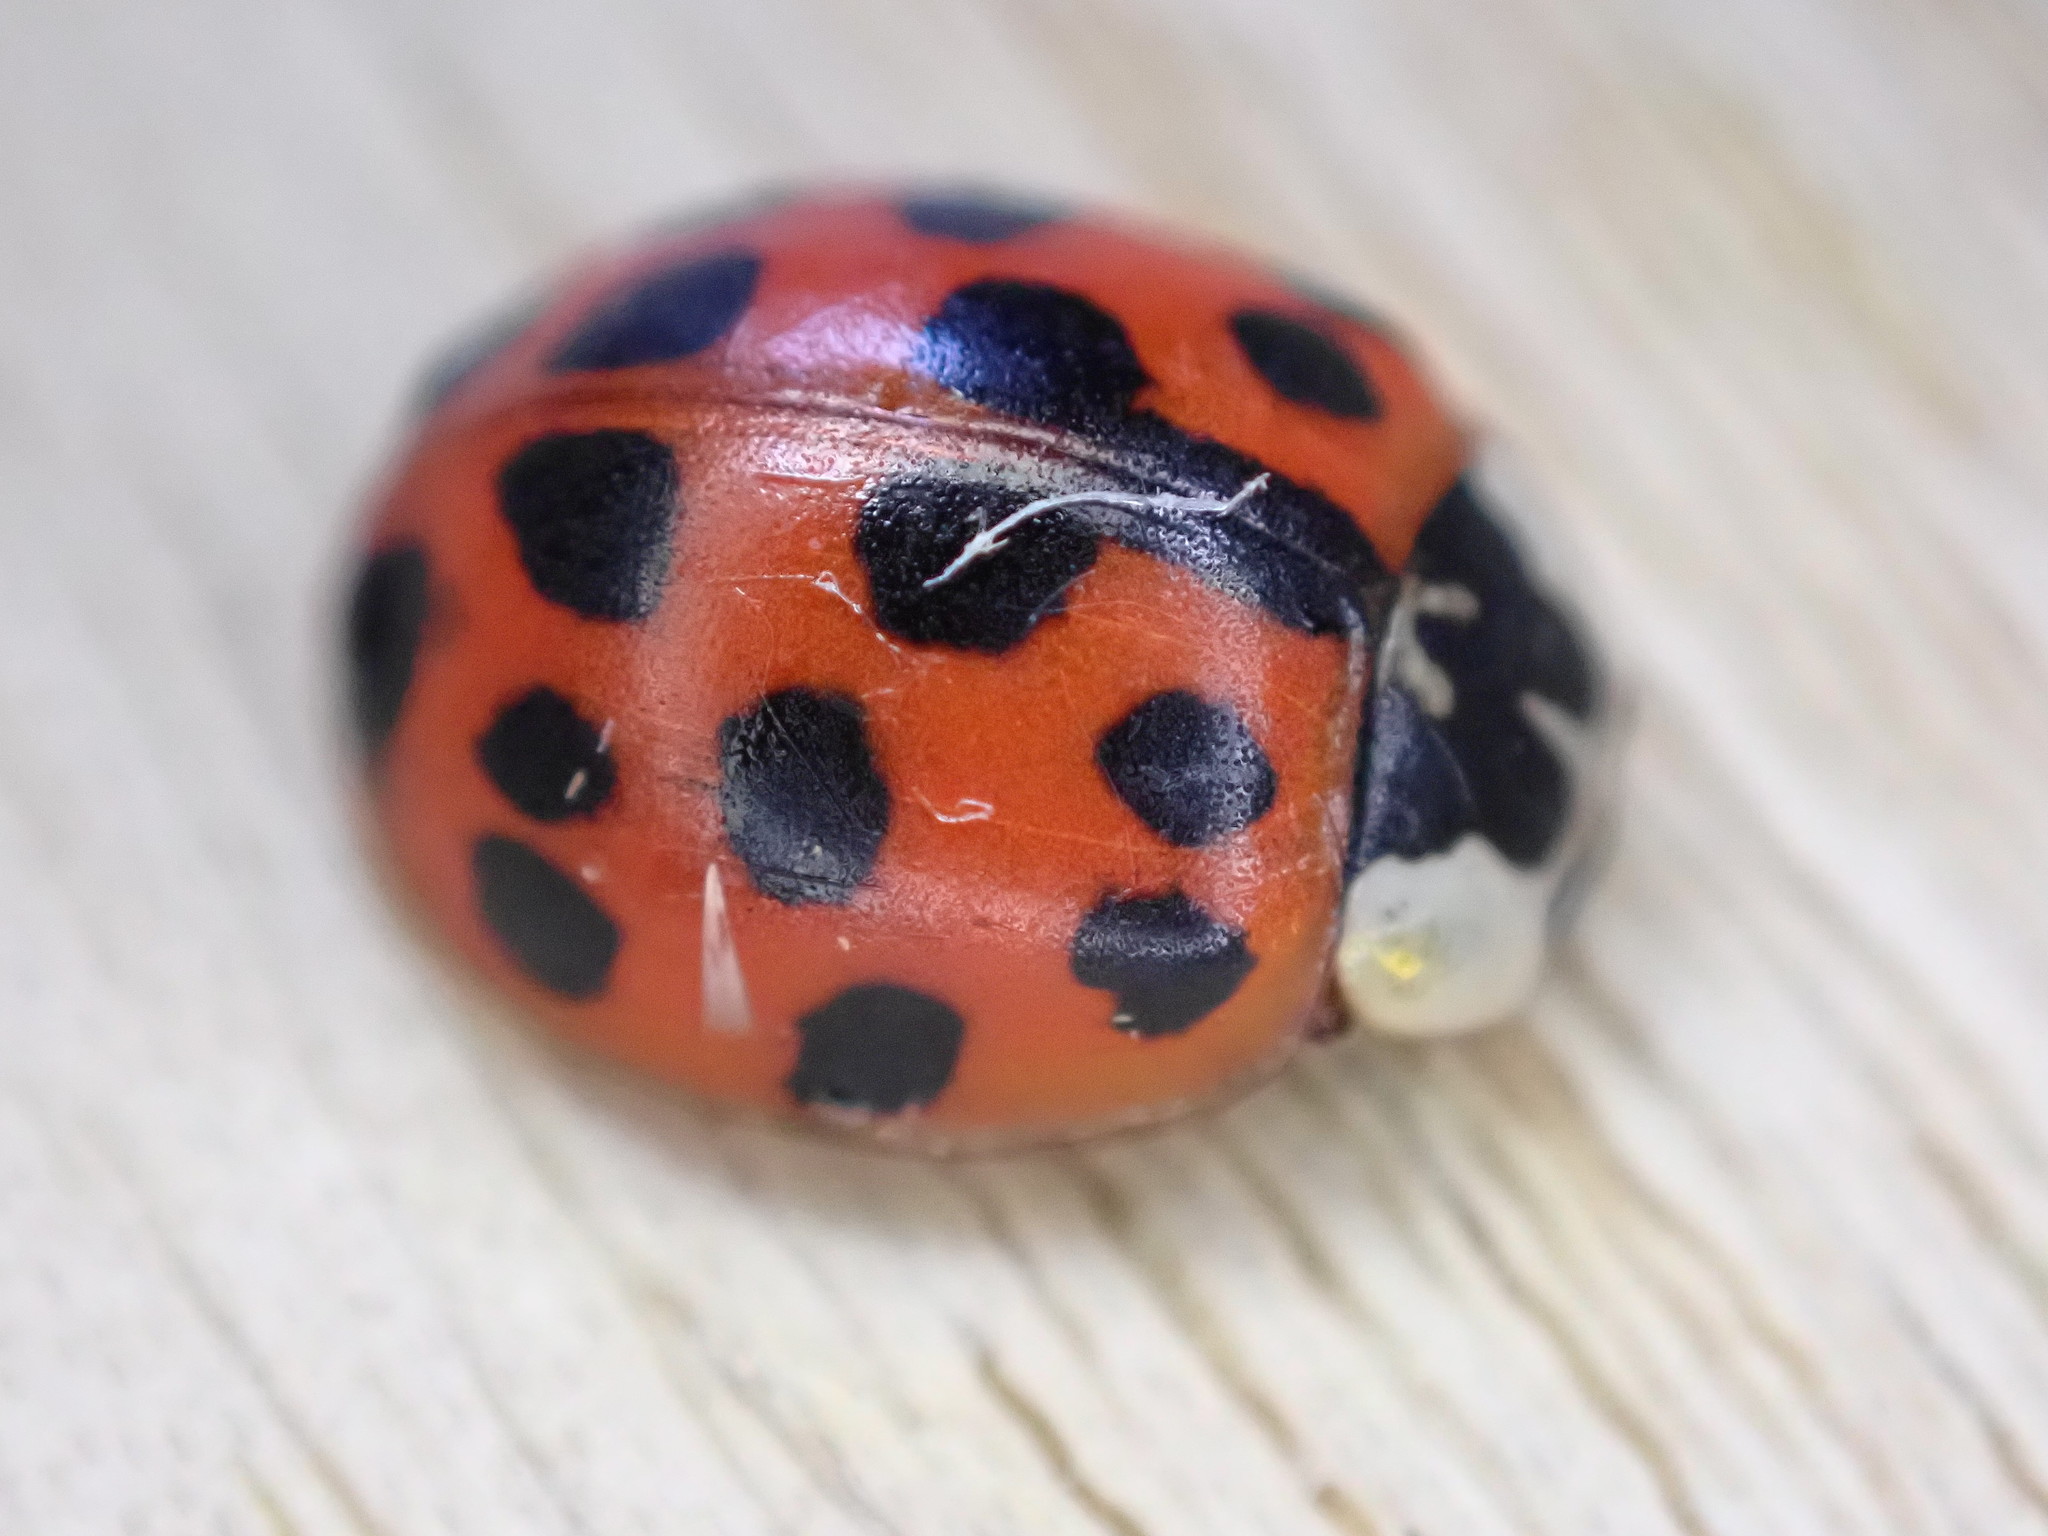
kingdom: Animalia
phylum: Arthropoda
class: Insecta
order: Coleoptera
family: Coccinellidae
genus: Harmonia
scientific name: Harmonia axyridis
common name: Harlequin ladybird
